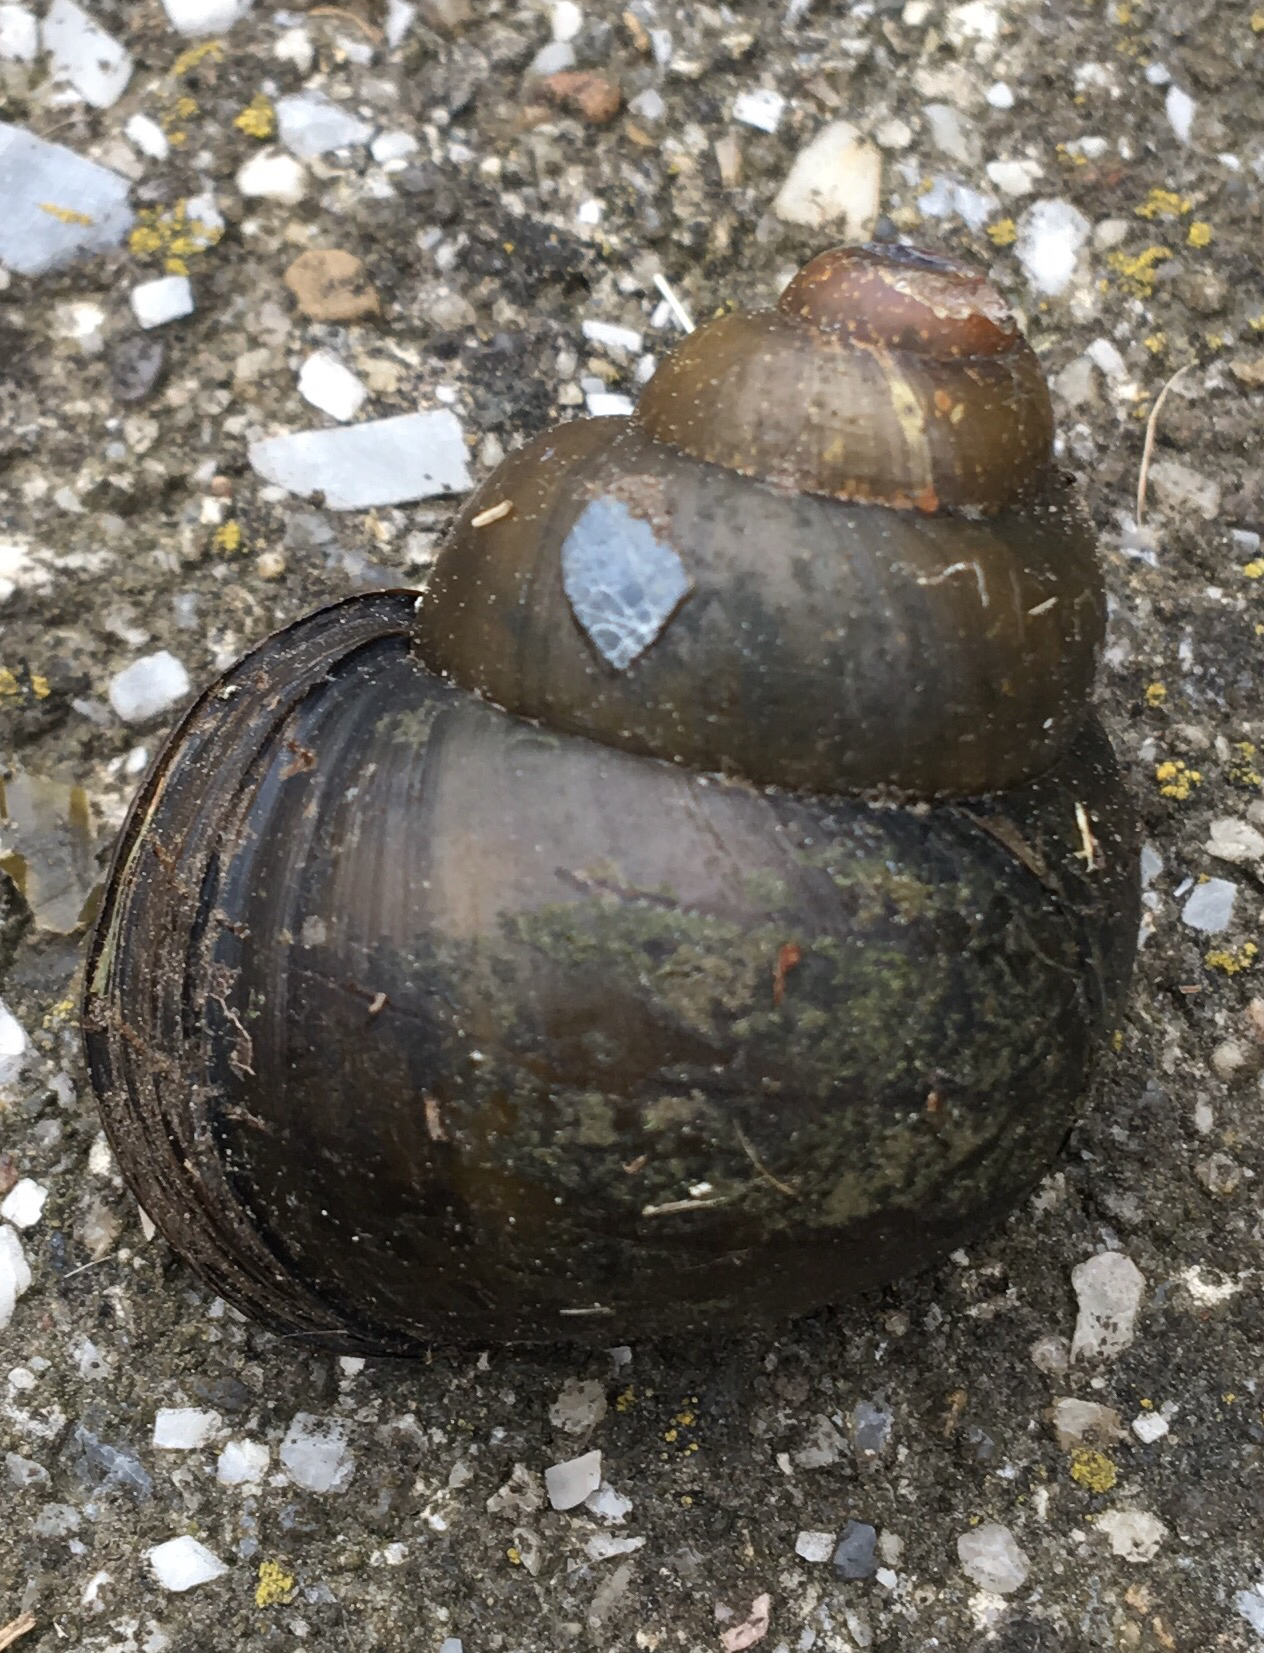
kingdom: Animalia
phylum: Mollusca
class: Gastropoda
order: Architaenioglossa
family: Viviparidae
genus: Cipangopaludina
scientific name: Cipangopaludina chinensis
